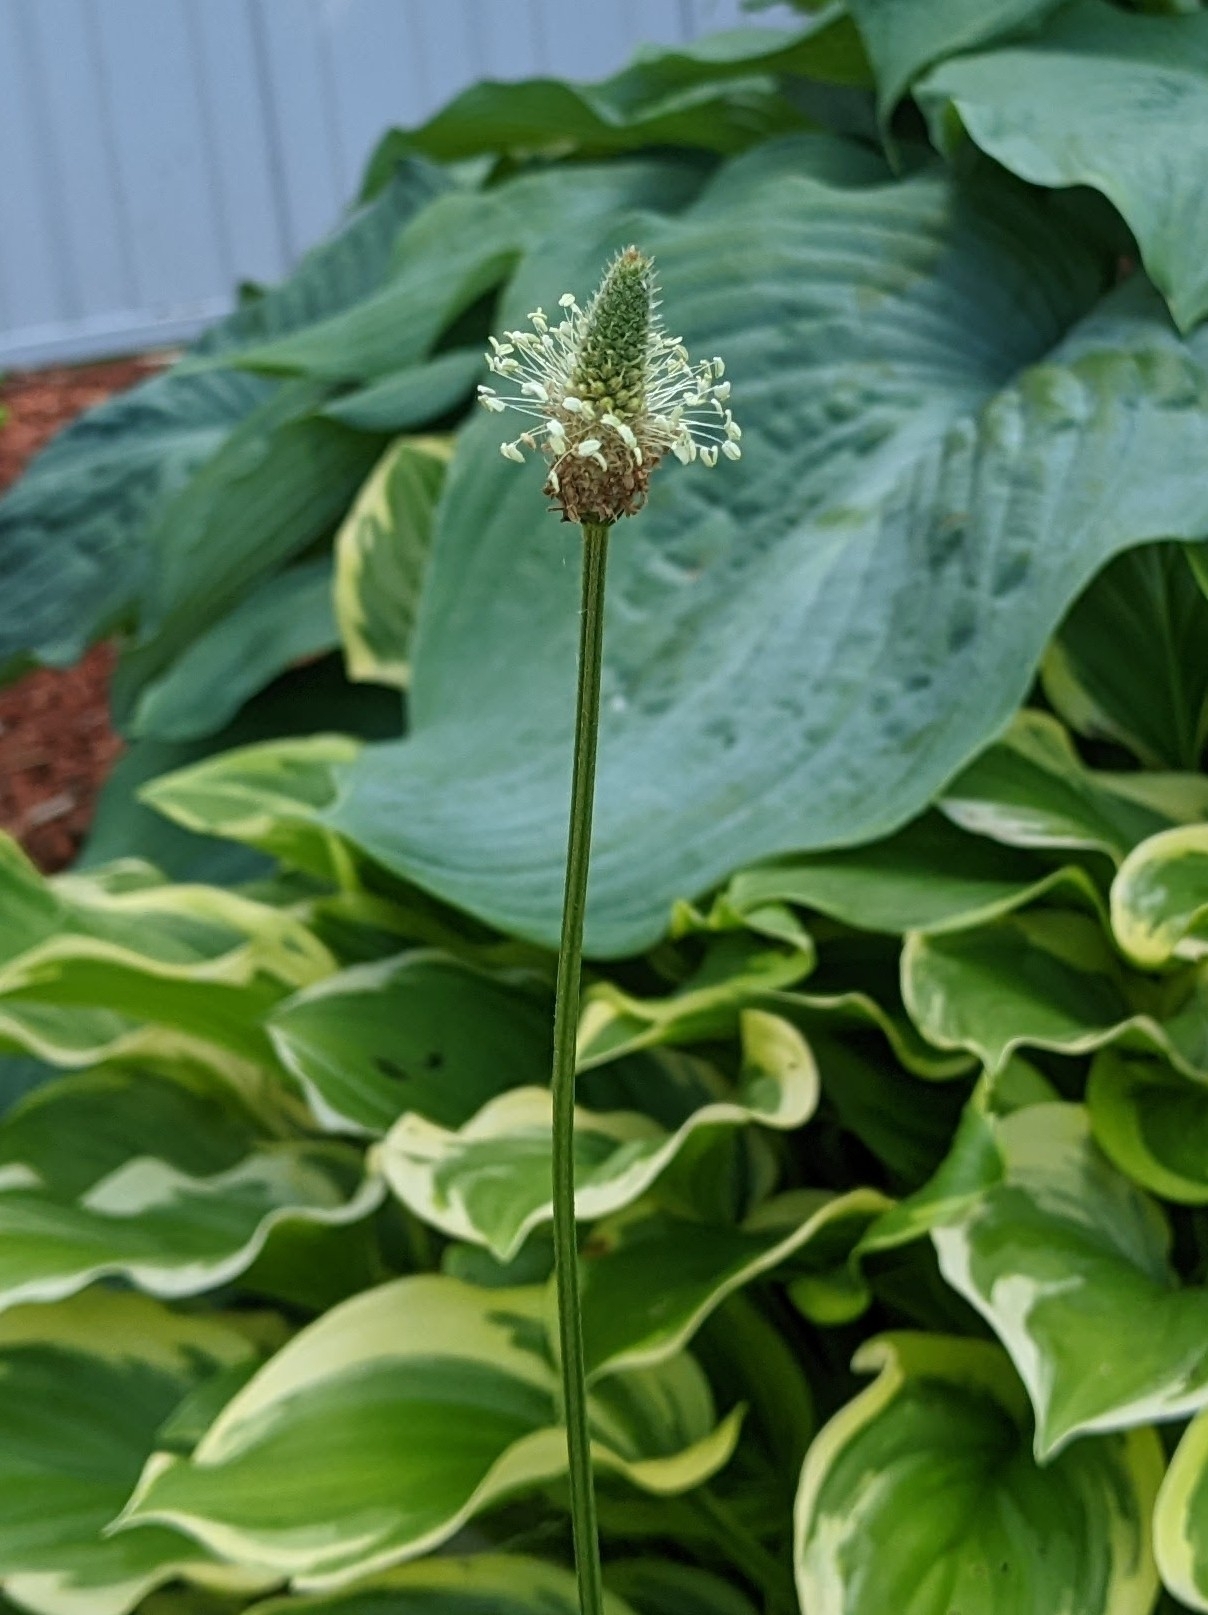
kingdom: Plantae
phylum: Tracheophyta
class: Magnoliopsida
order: Lamiales
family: Plantaginaceae
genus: Plantago
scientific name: Plantago lanceolata
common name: Ribwort plantain
